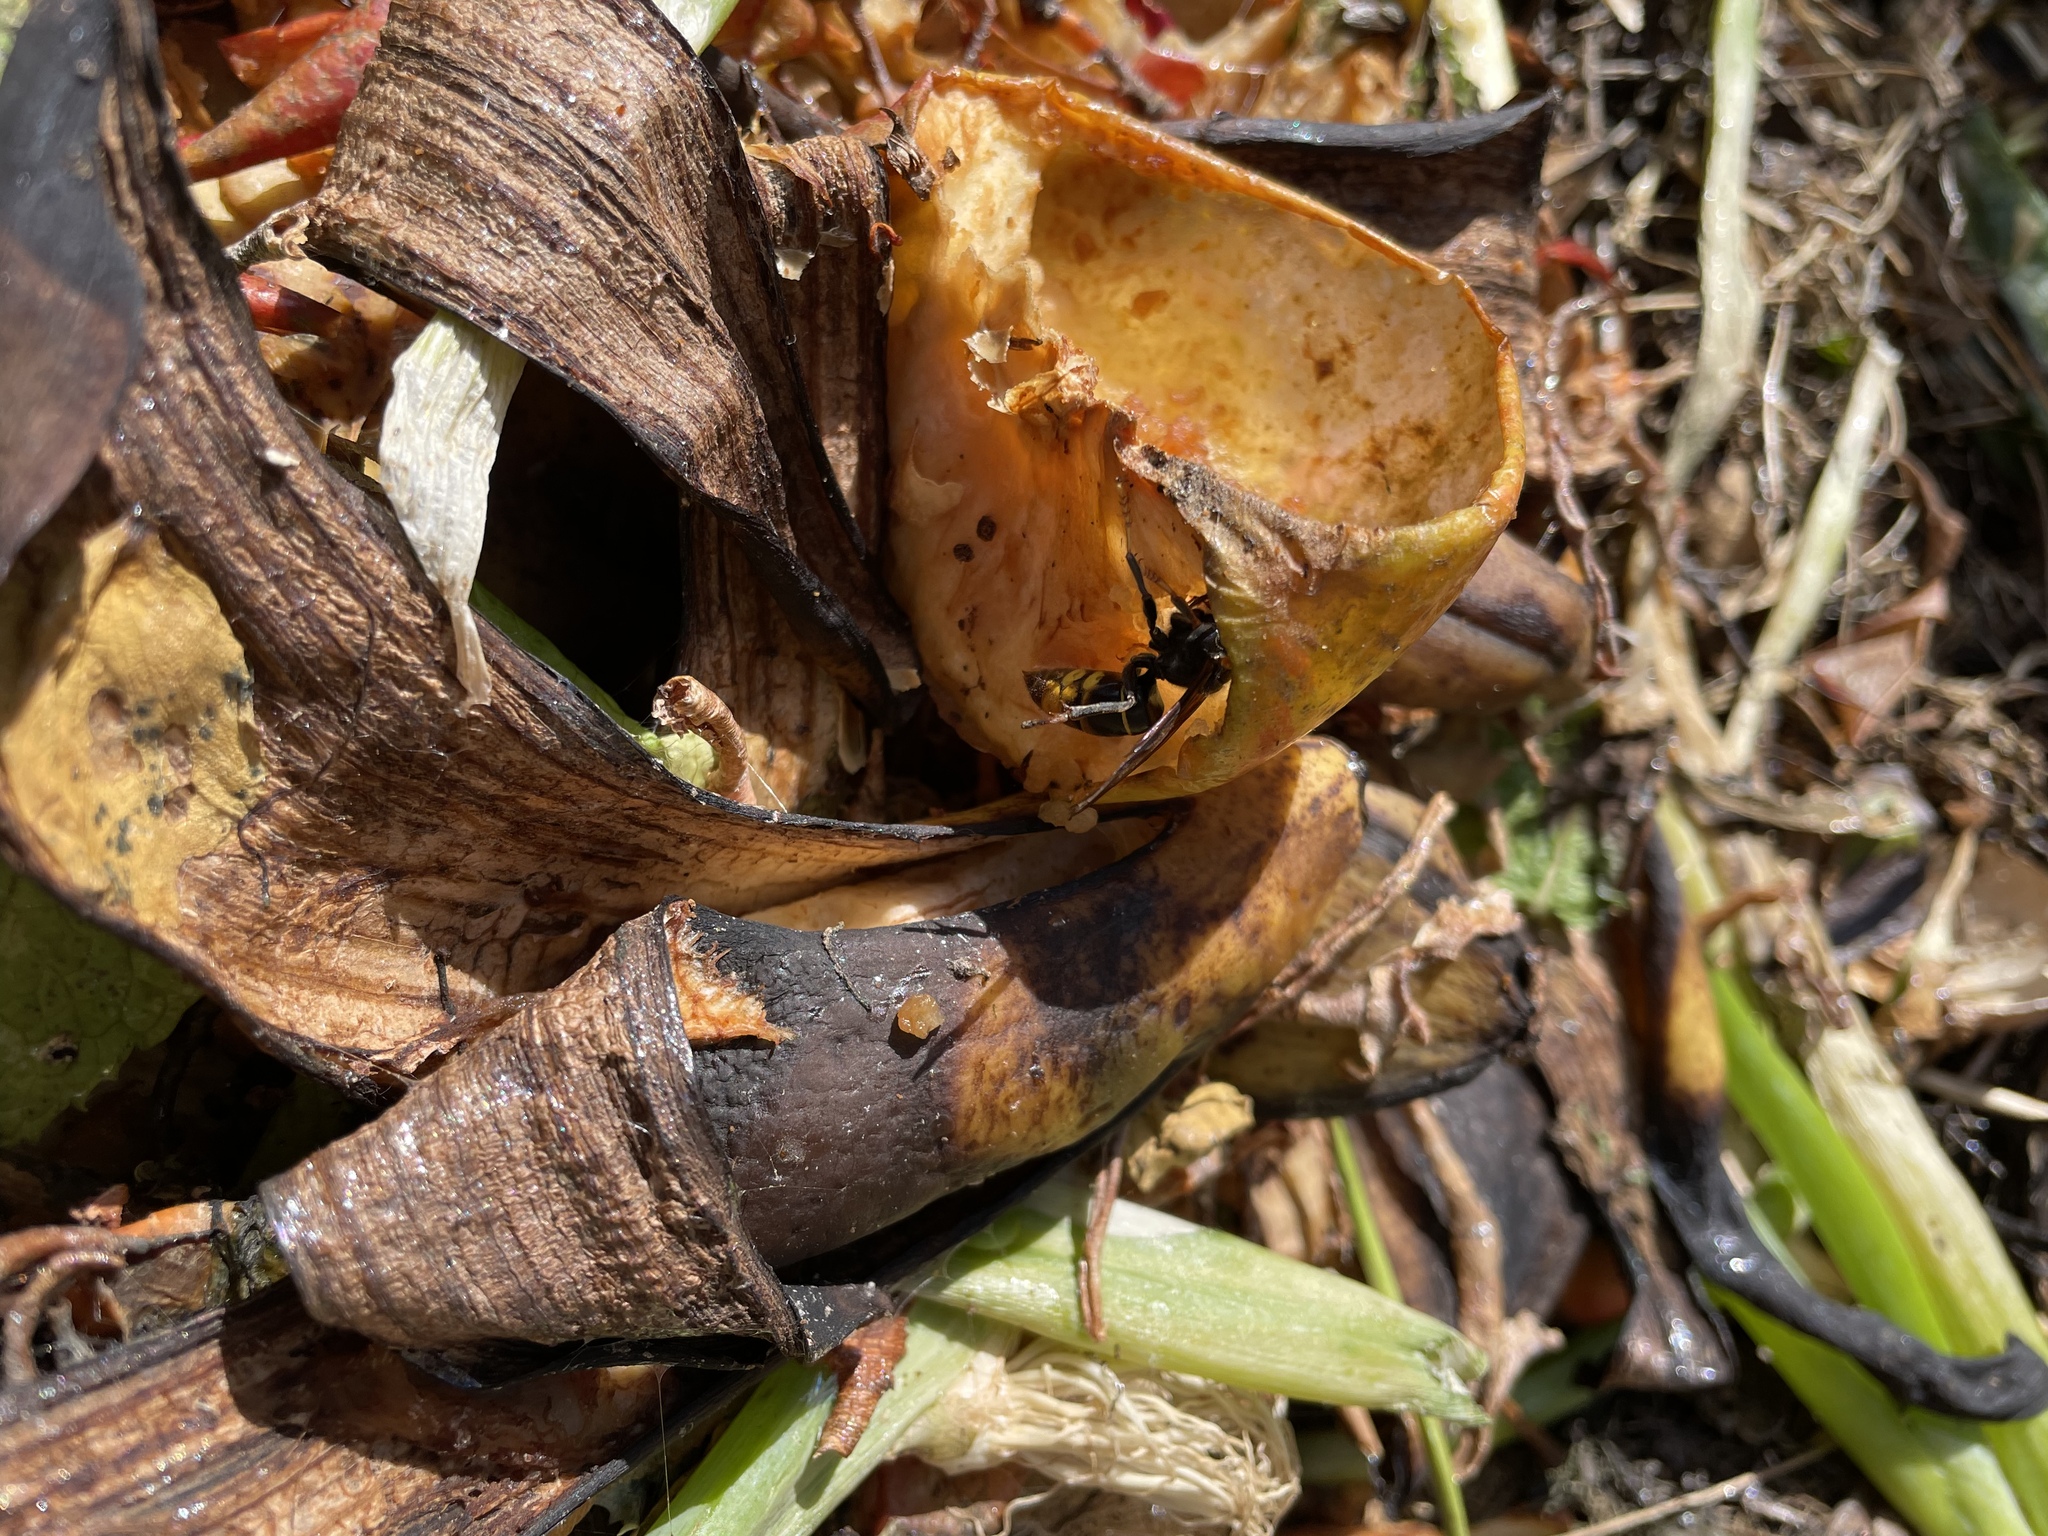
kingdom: Animalia
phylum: Arthropoda
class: Insecta
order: Hymenoptera
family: Vespidae
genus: Vespa
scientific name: Vespa velutina
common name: Asian hornet
